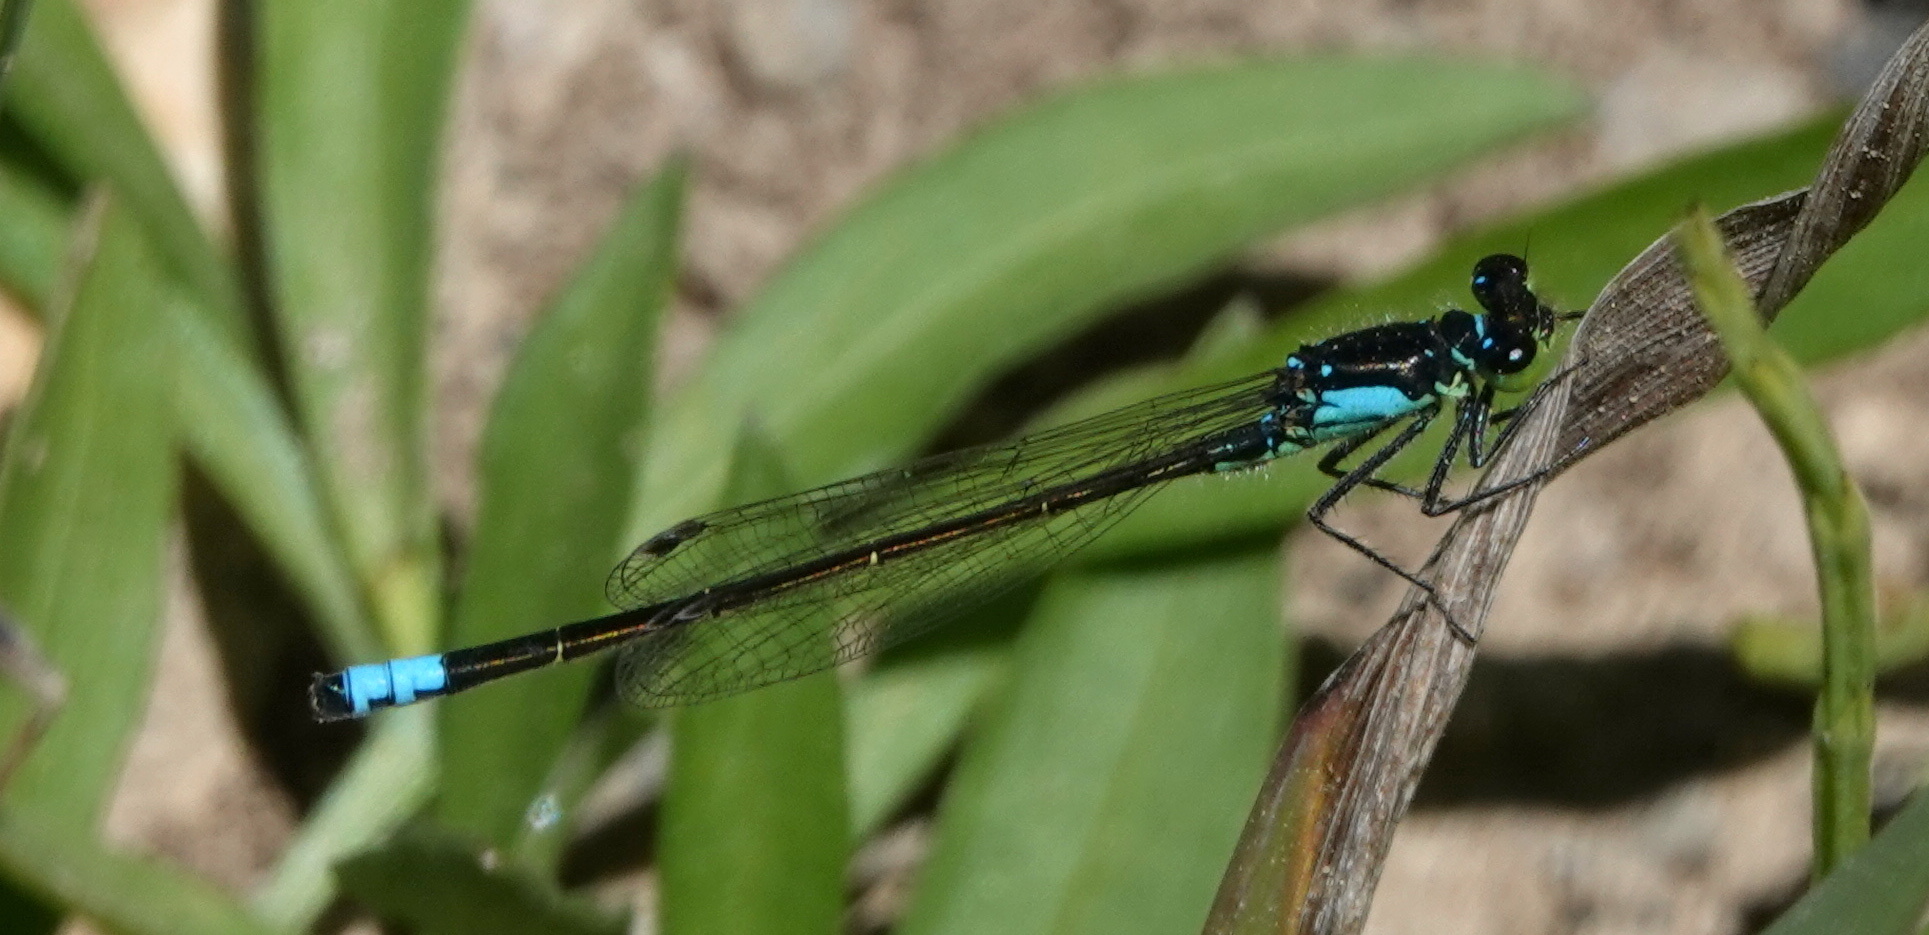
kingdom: Animalia
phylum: Arthropoda
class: Insecta
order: Odonata
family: Coenagrionidae
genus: Ischnura
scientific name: Ischnura cervula
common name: Pacific forktail
